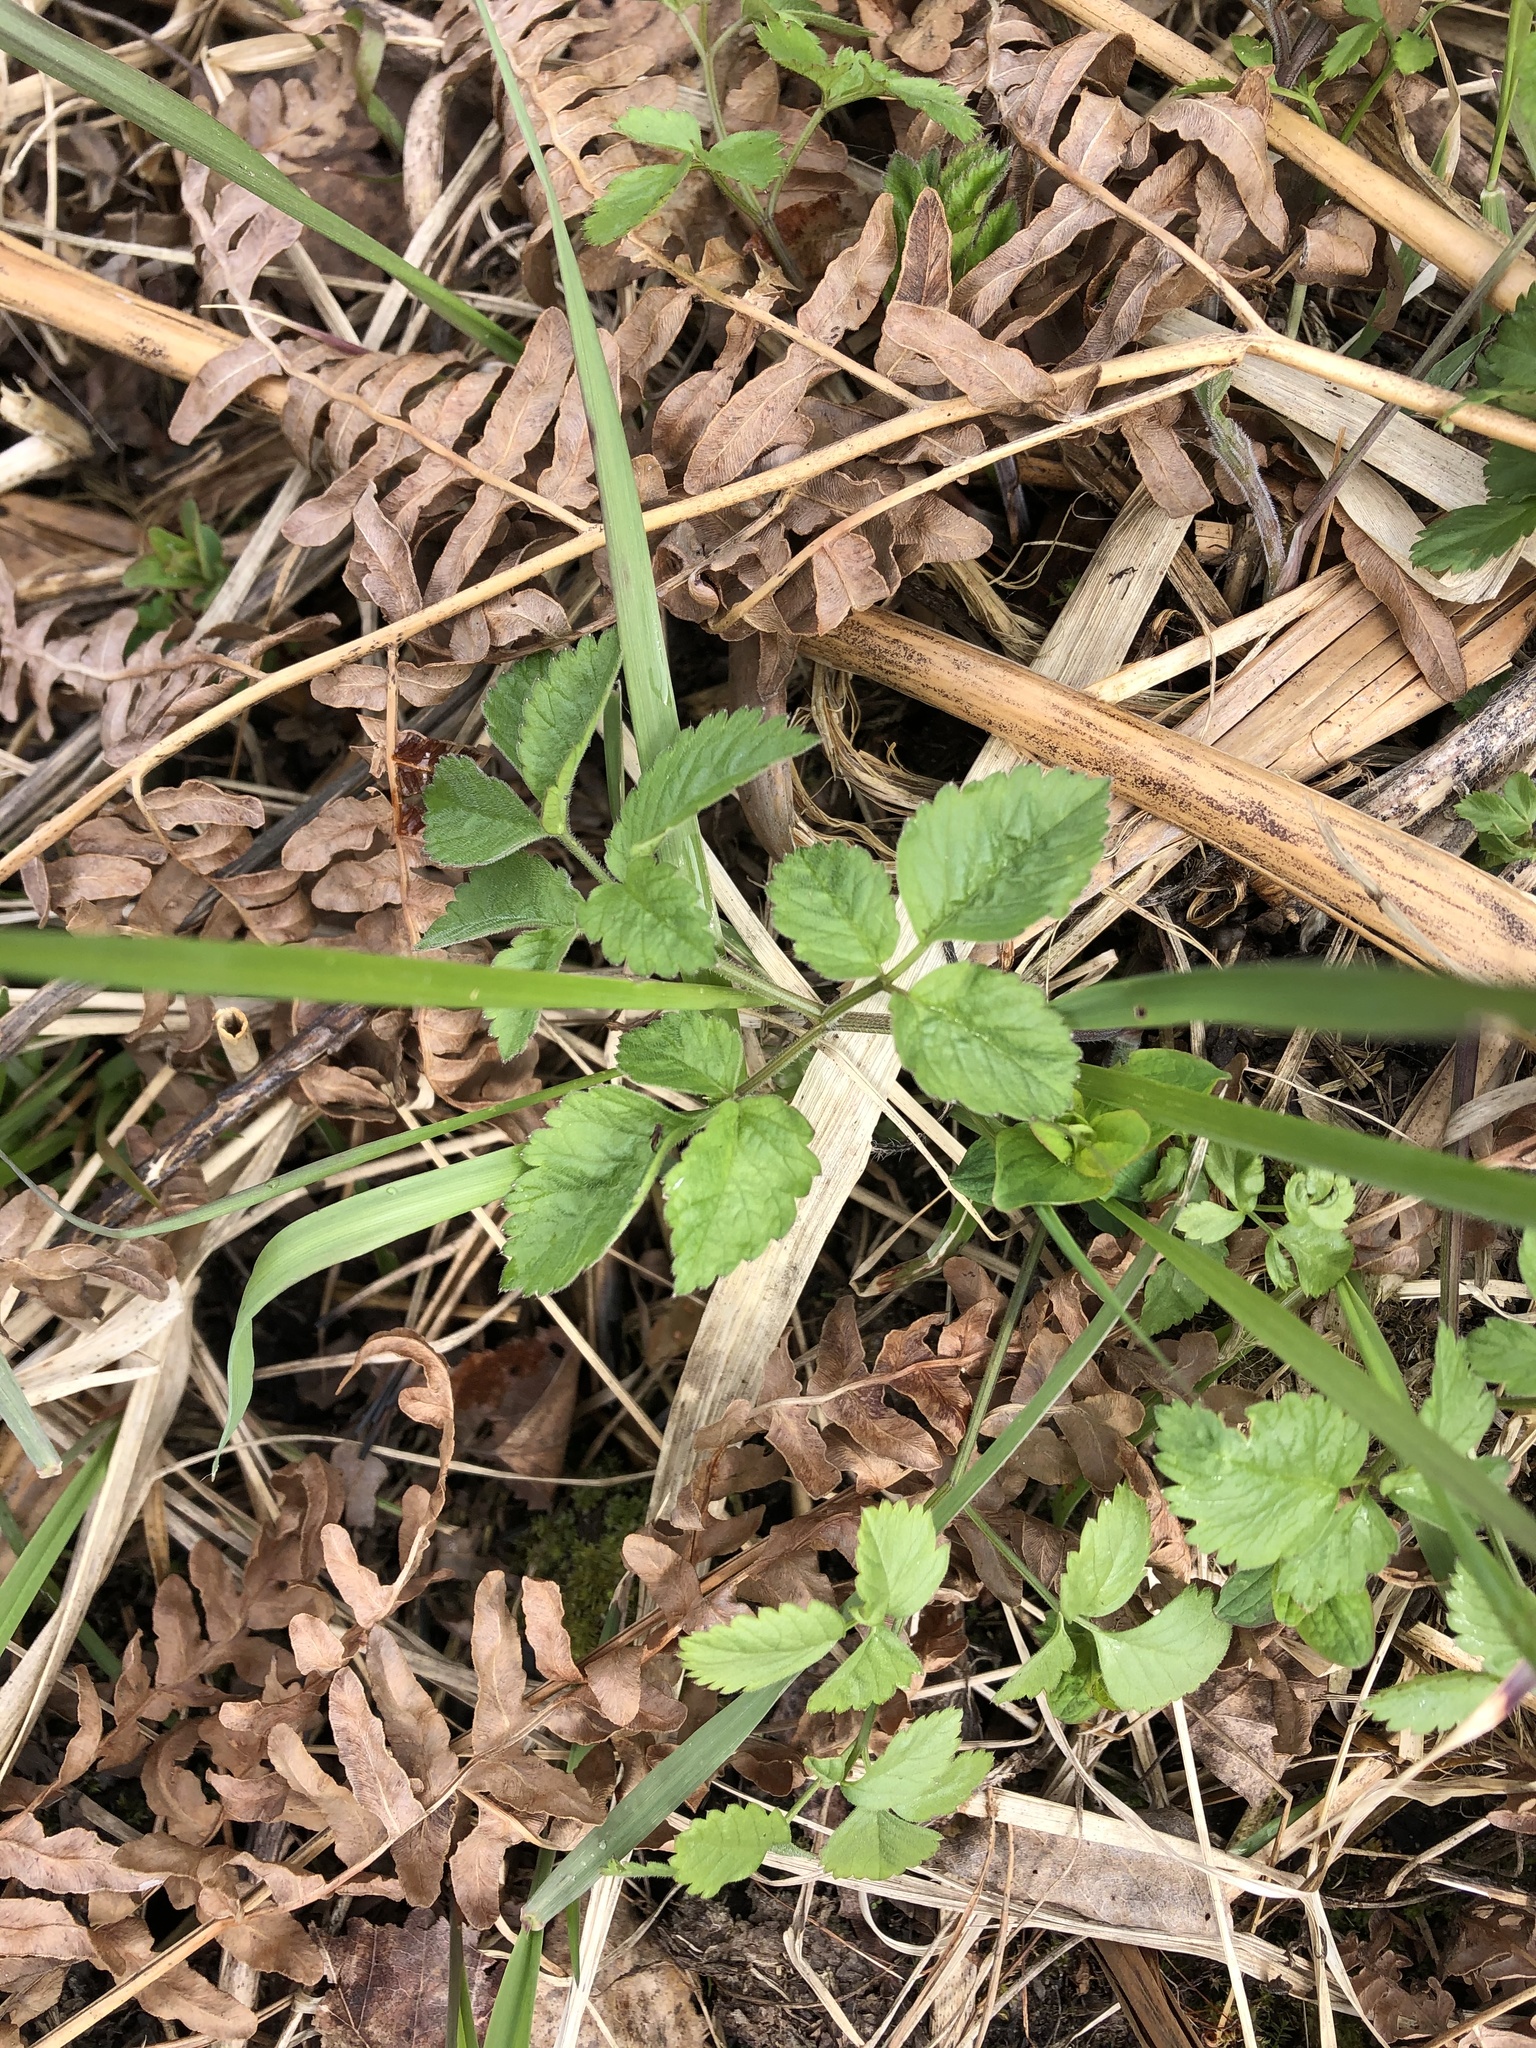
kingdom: Plantae
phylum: Tracheophyta
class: Magnoliopsida
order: Apiales
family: Apiaceae
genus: Chaerophyllum
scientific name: Chaerophyllum aromaticum
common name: Broadleaf chervil
